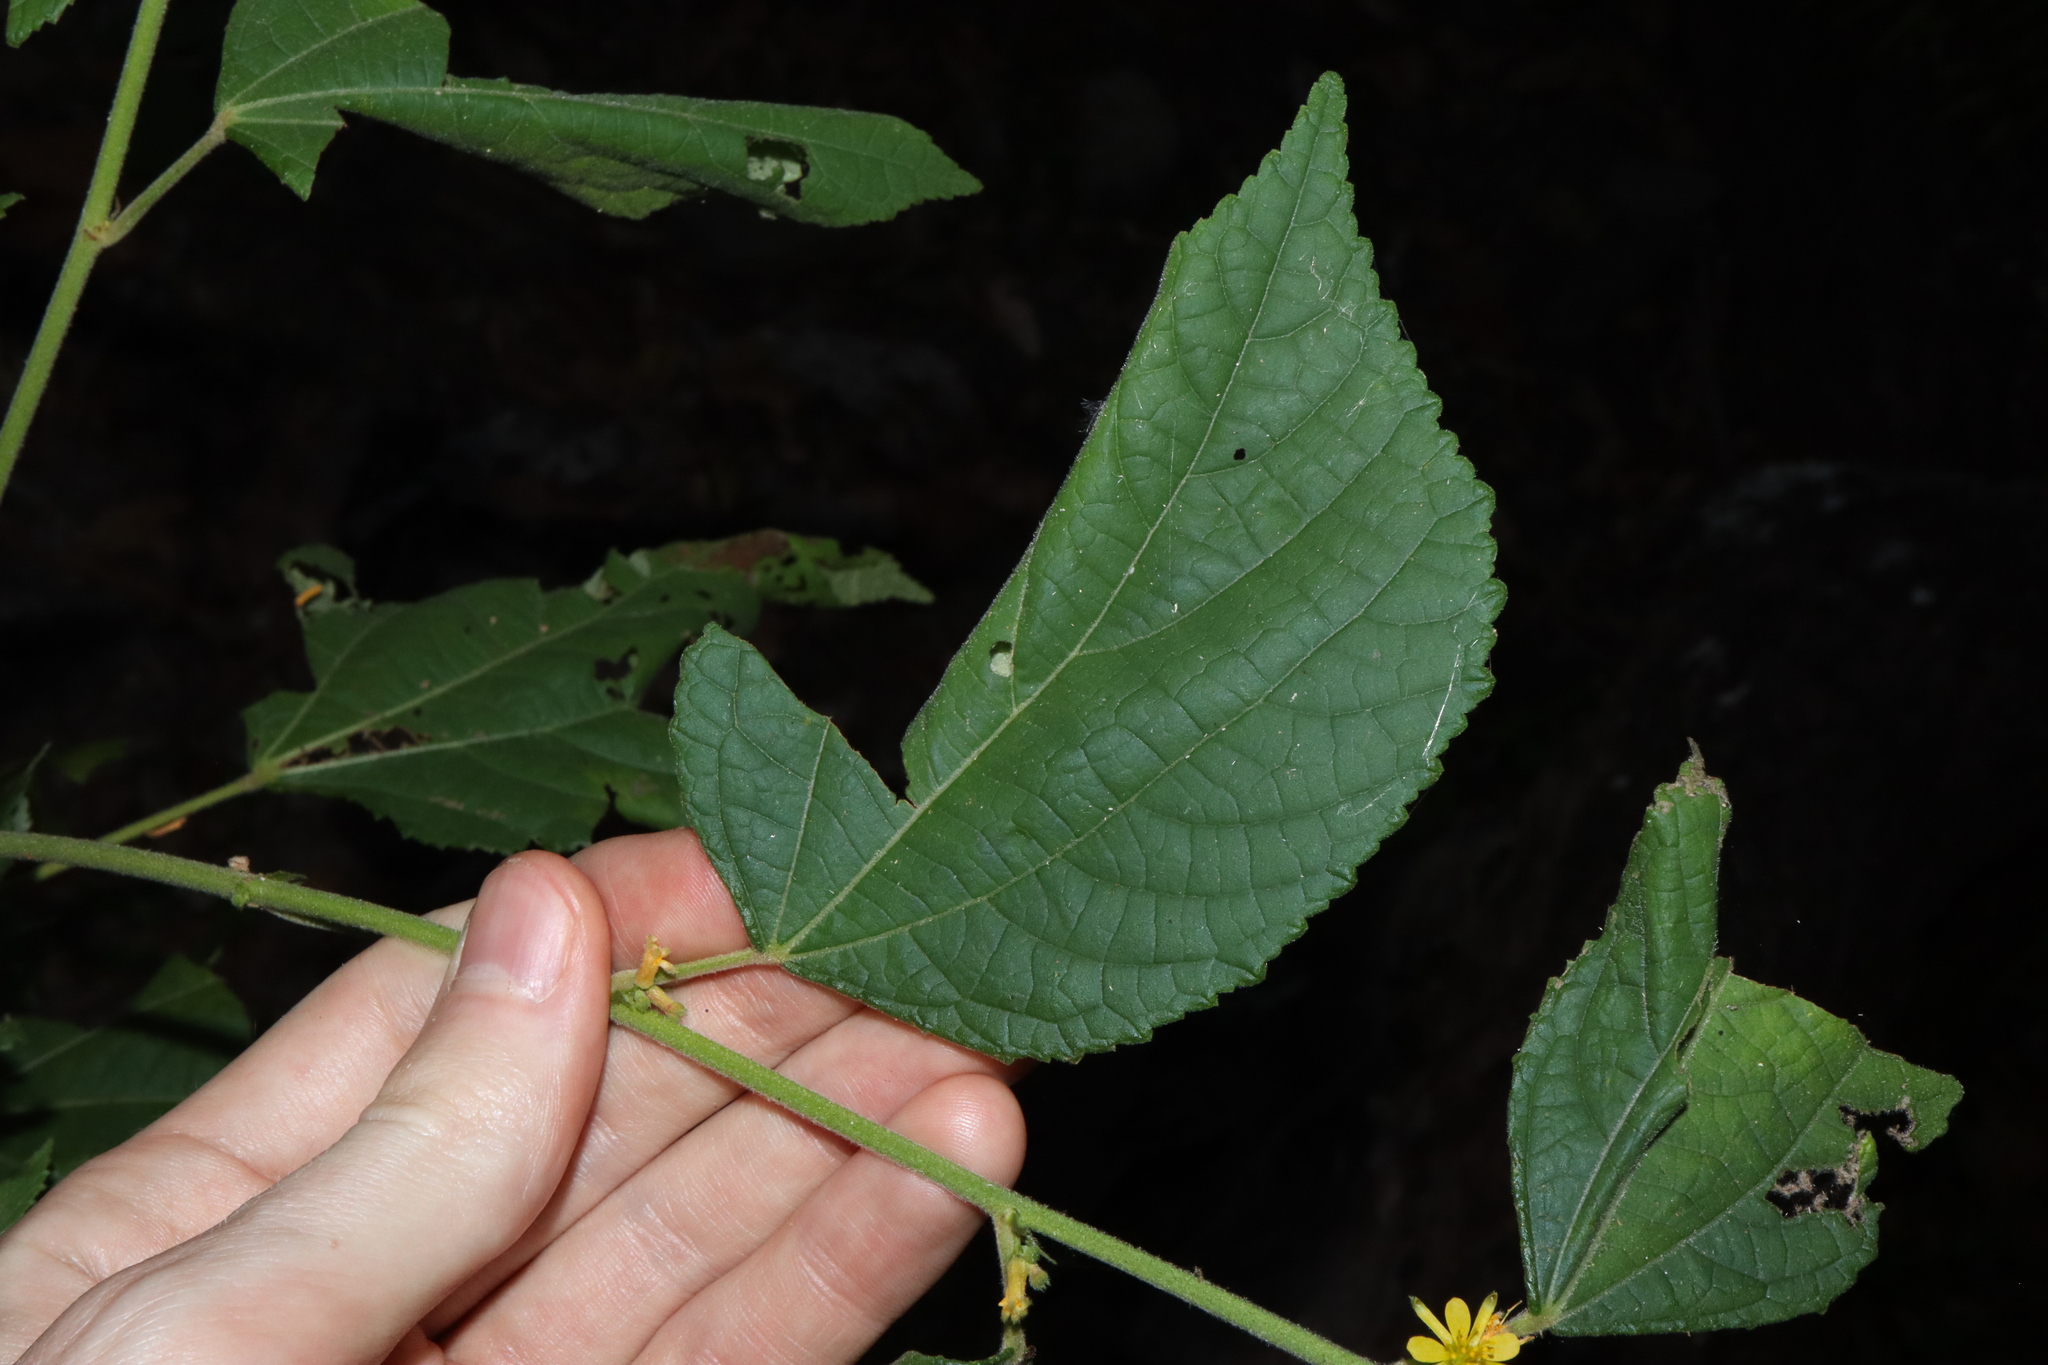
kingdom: Plantae
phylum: Tracheophyta
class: Magnoliopsida
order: Malvales
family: Malvaceae
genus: Triumfetta
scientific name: Triumfetta rhomboidea
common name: Diamond burbark
